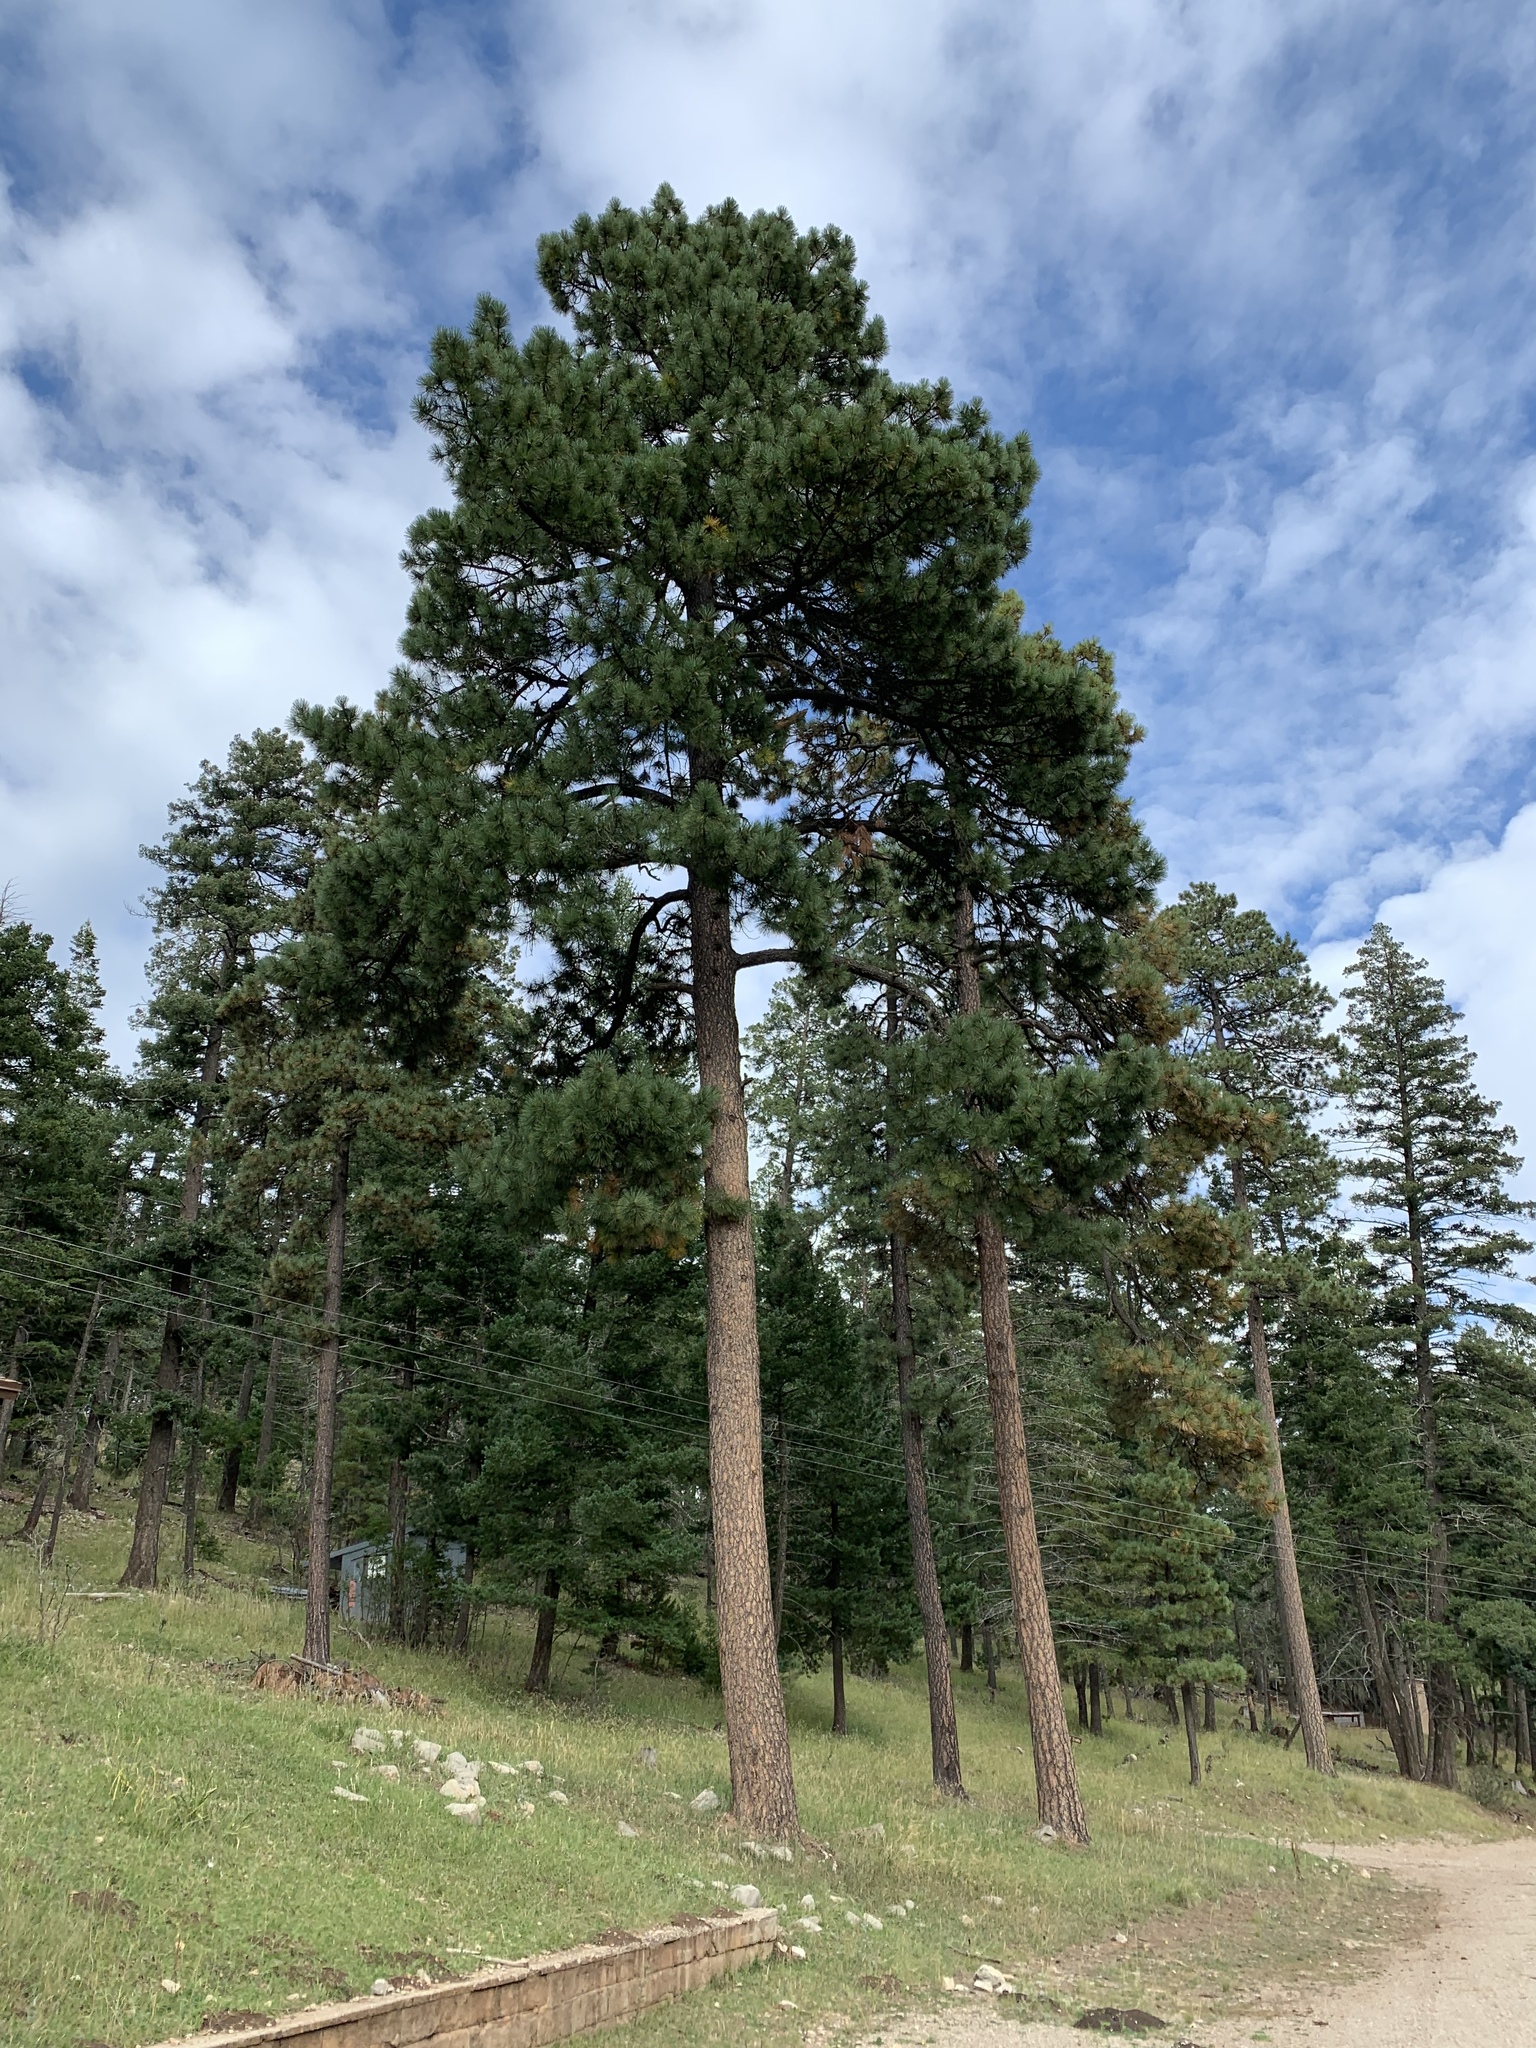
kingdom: Plantae
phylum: Tracheophyta
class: Pinopsida
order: Pinales
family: Pinaceae
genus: Pinus
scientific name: Pinus ponderosa
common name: Western yellow-pine
